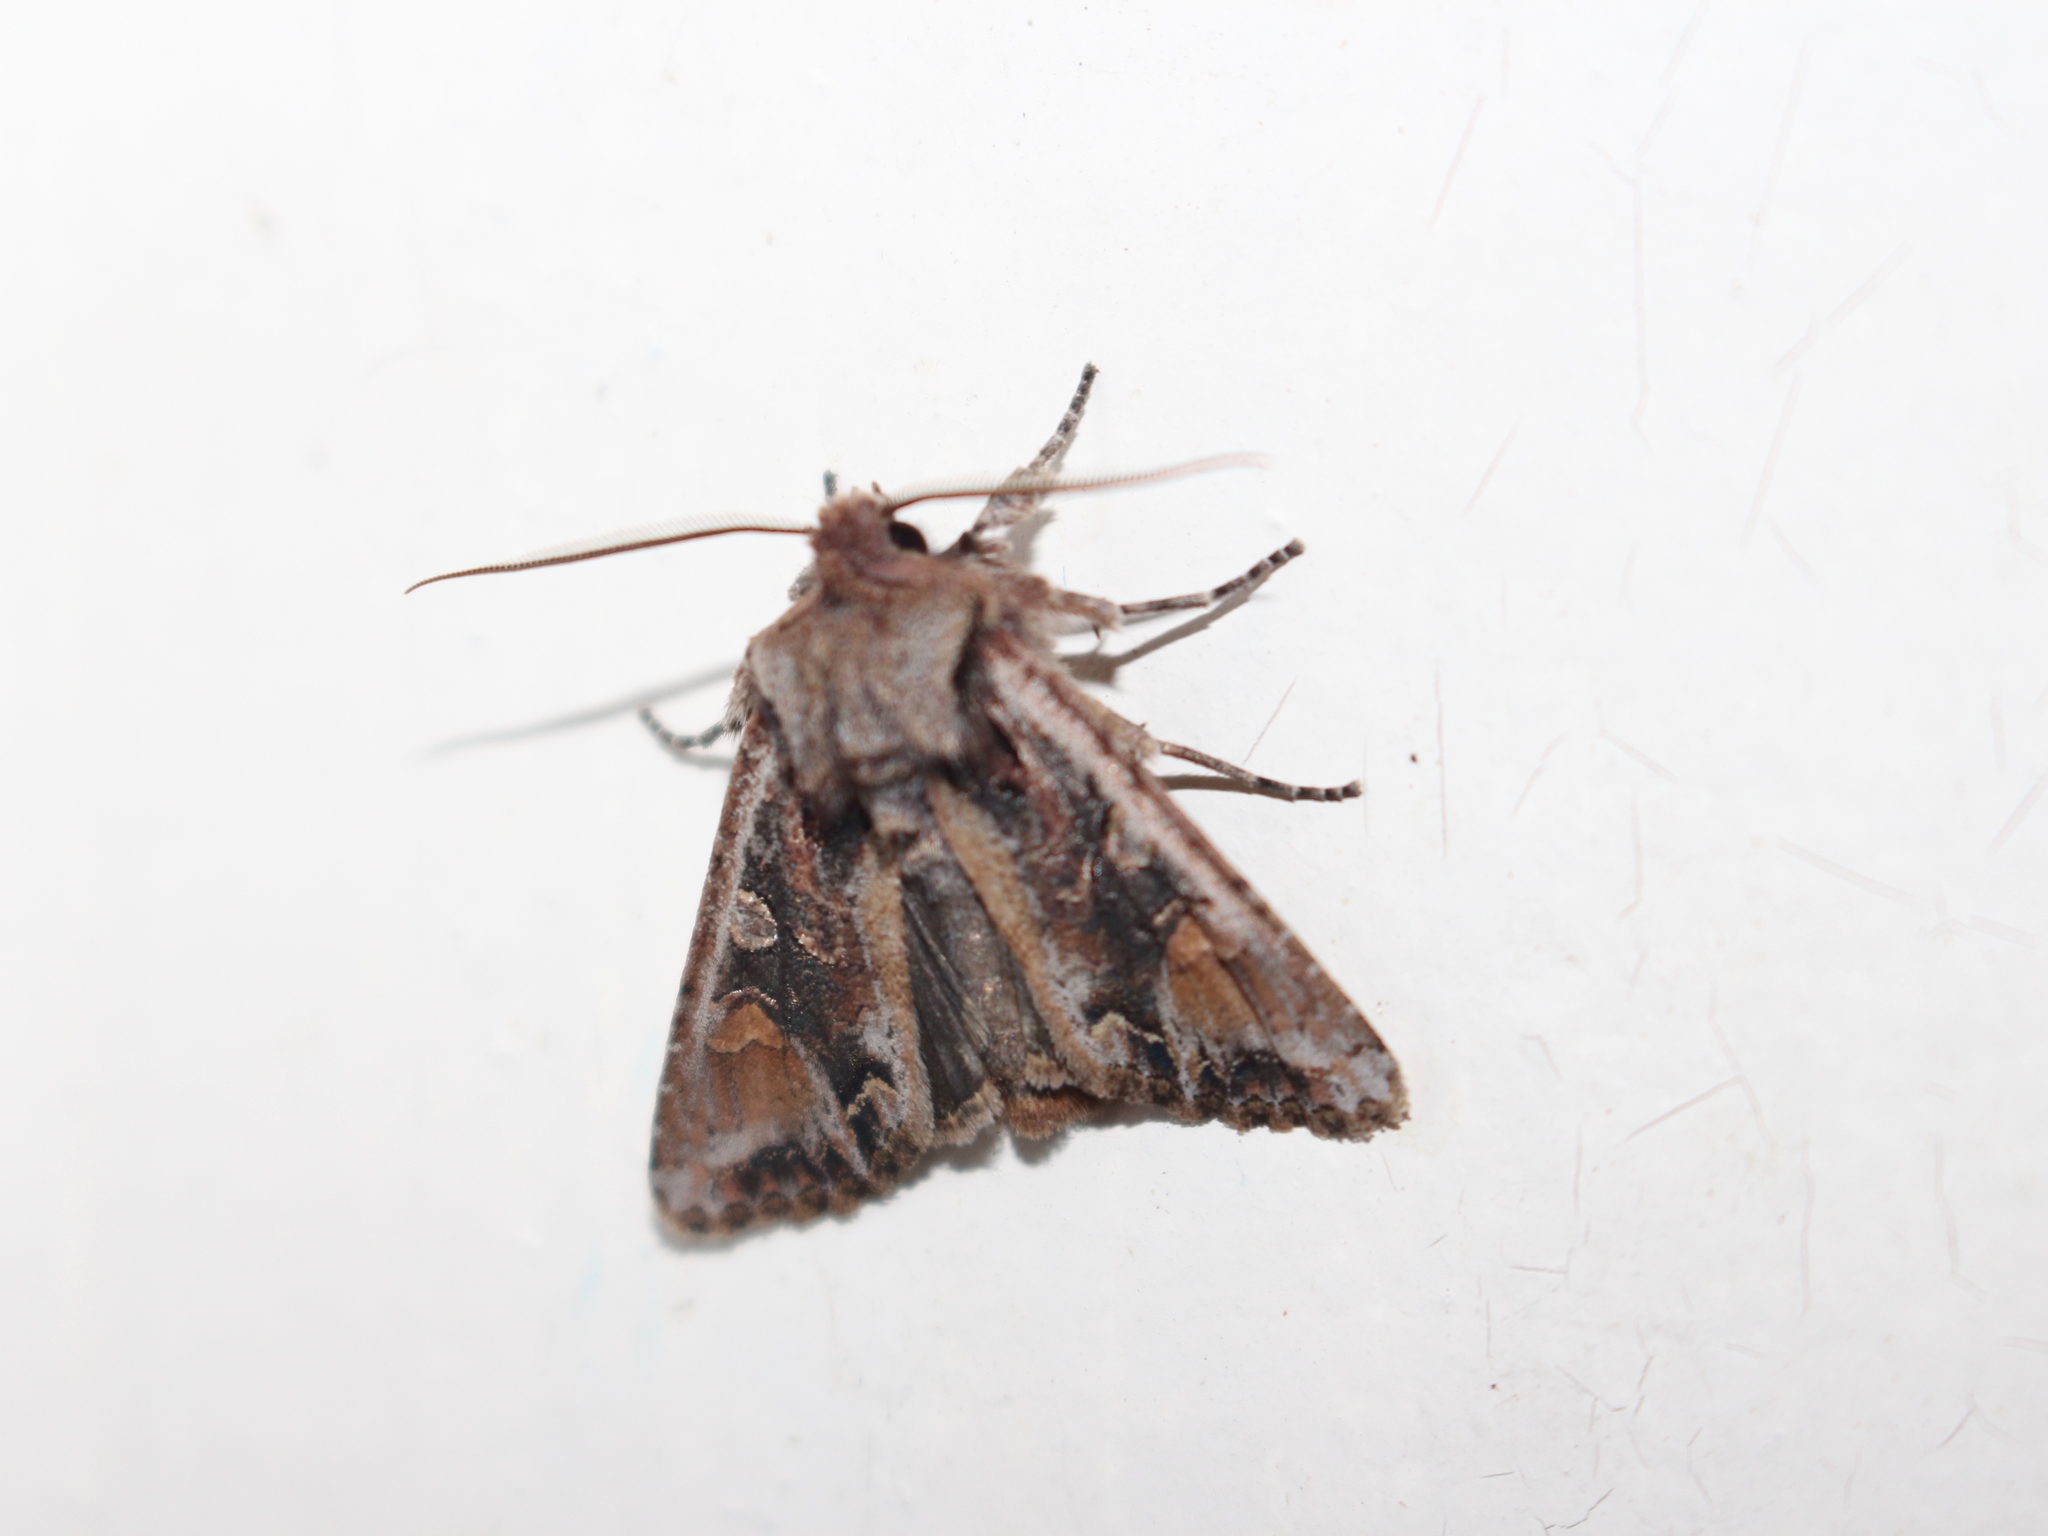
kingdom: Animalia
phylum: Arthropoda
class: Insecta
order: Lepidoptera
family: Noctuidae
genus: Ichneutica
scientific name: Ichneutica insignis
